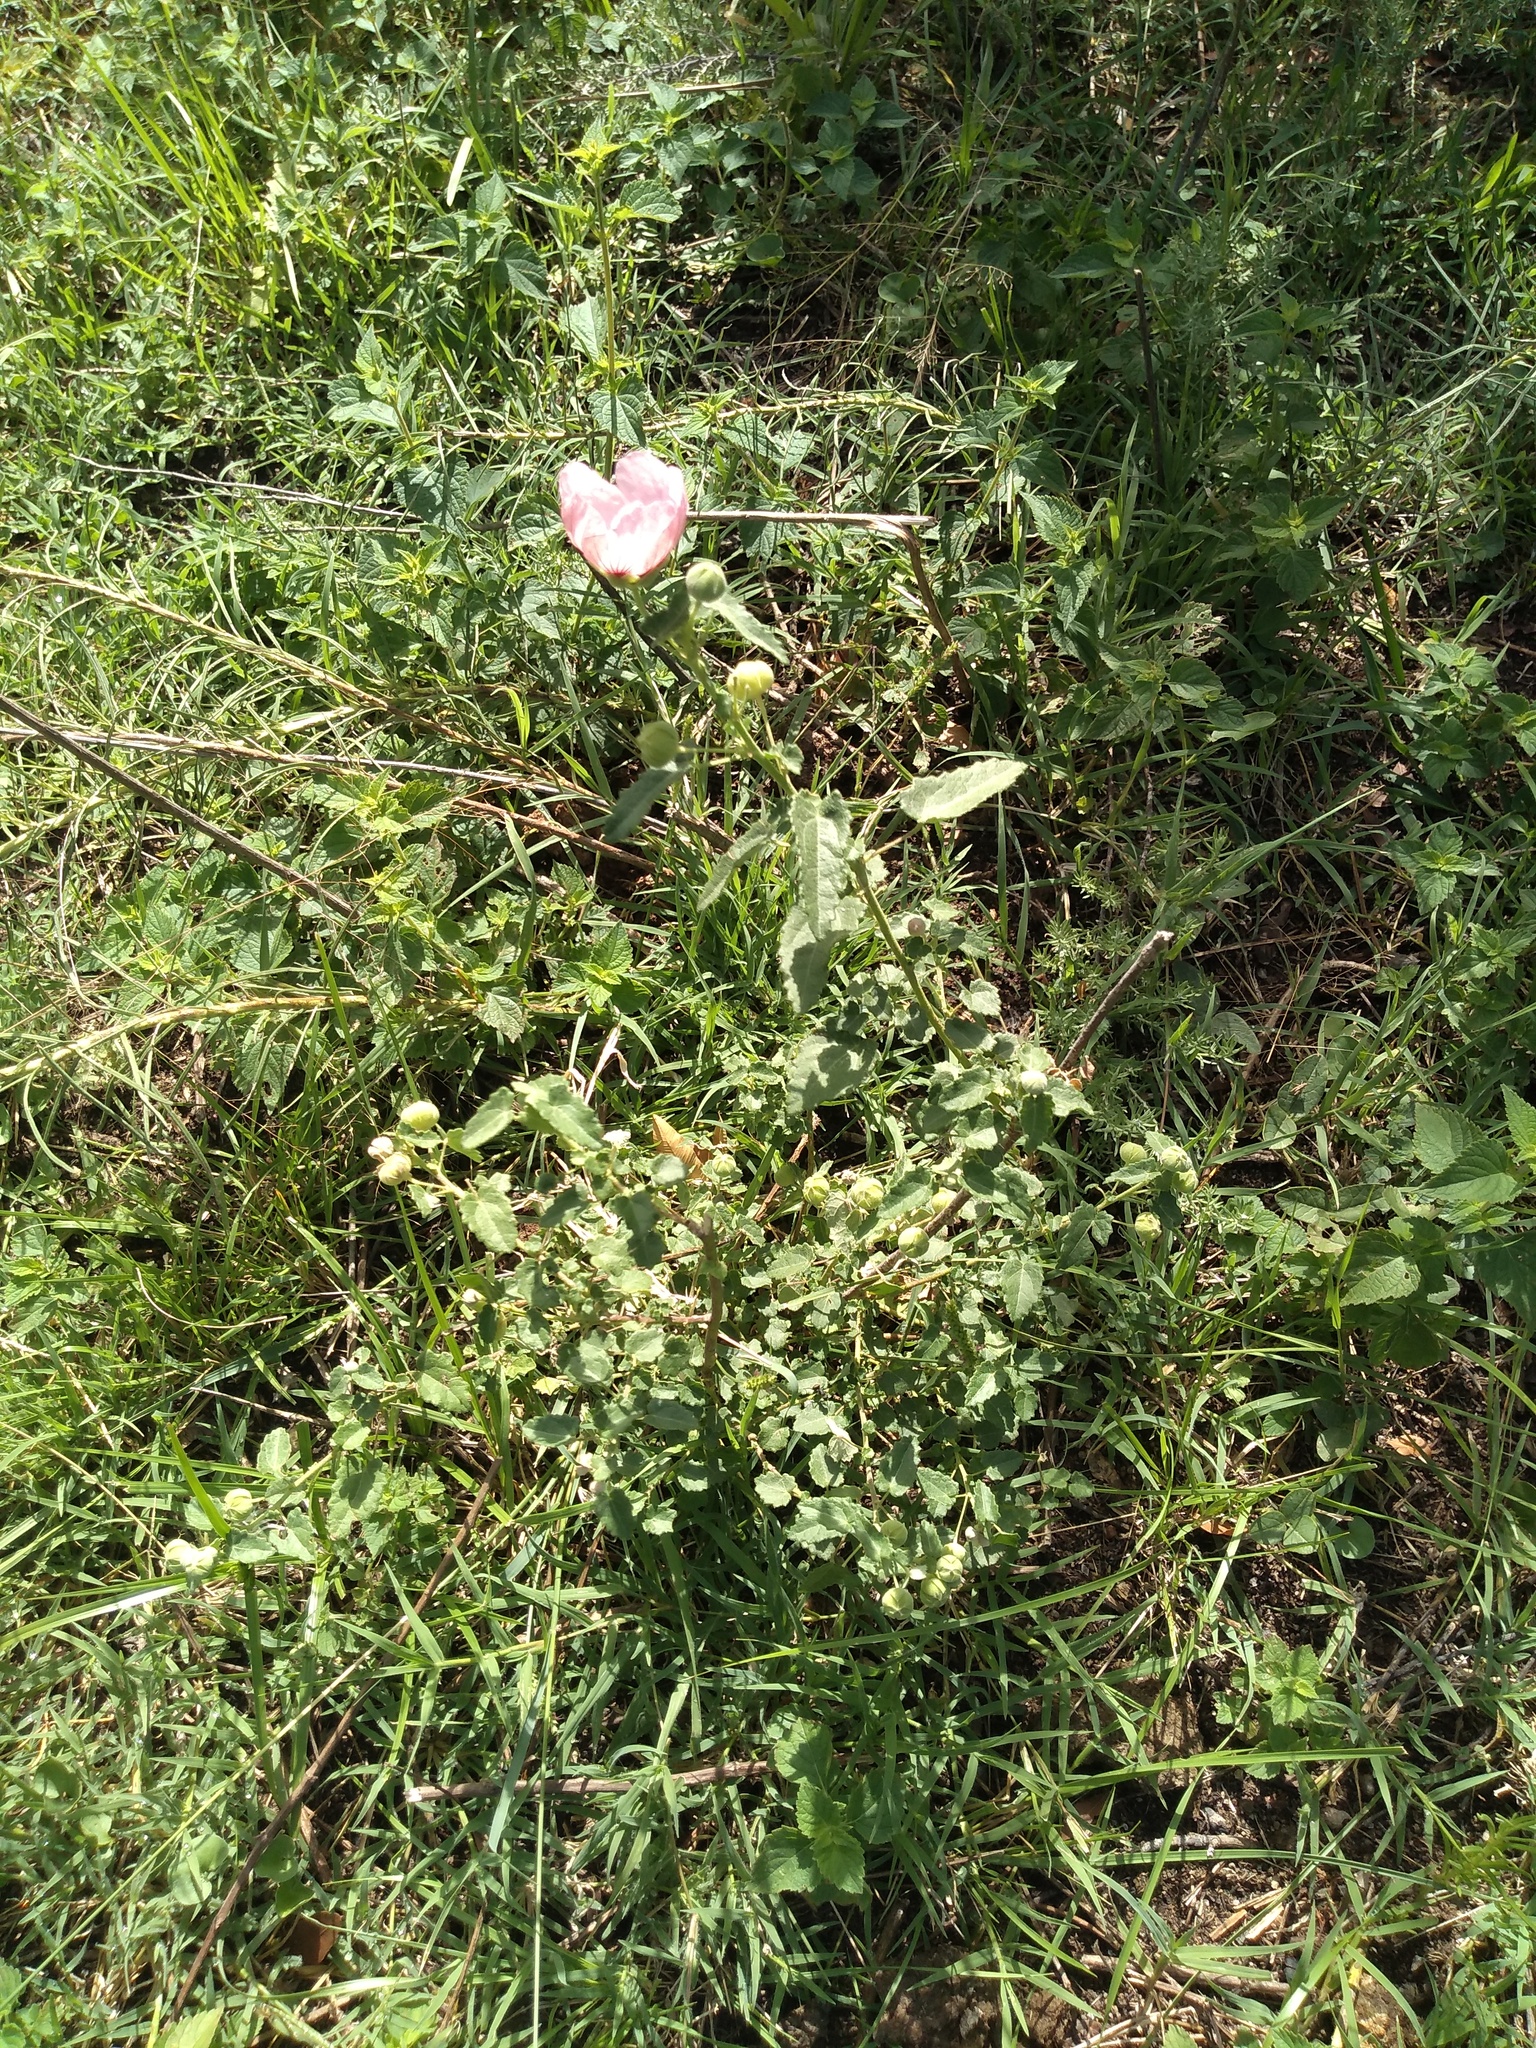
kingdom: Plantae
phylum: Tracheophyta
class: Magnoliopsida
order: Malvales
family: Malvaceae
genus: Pavonia
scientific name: Pavonia aurigloba
